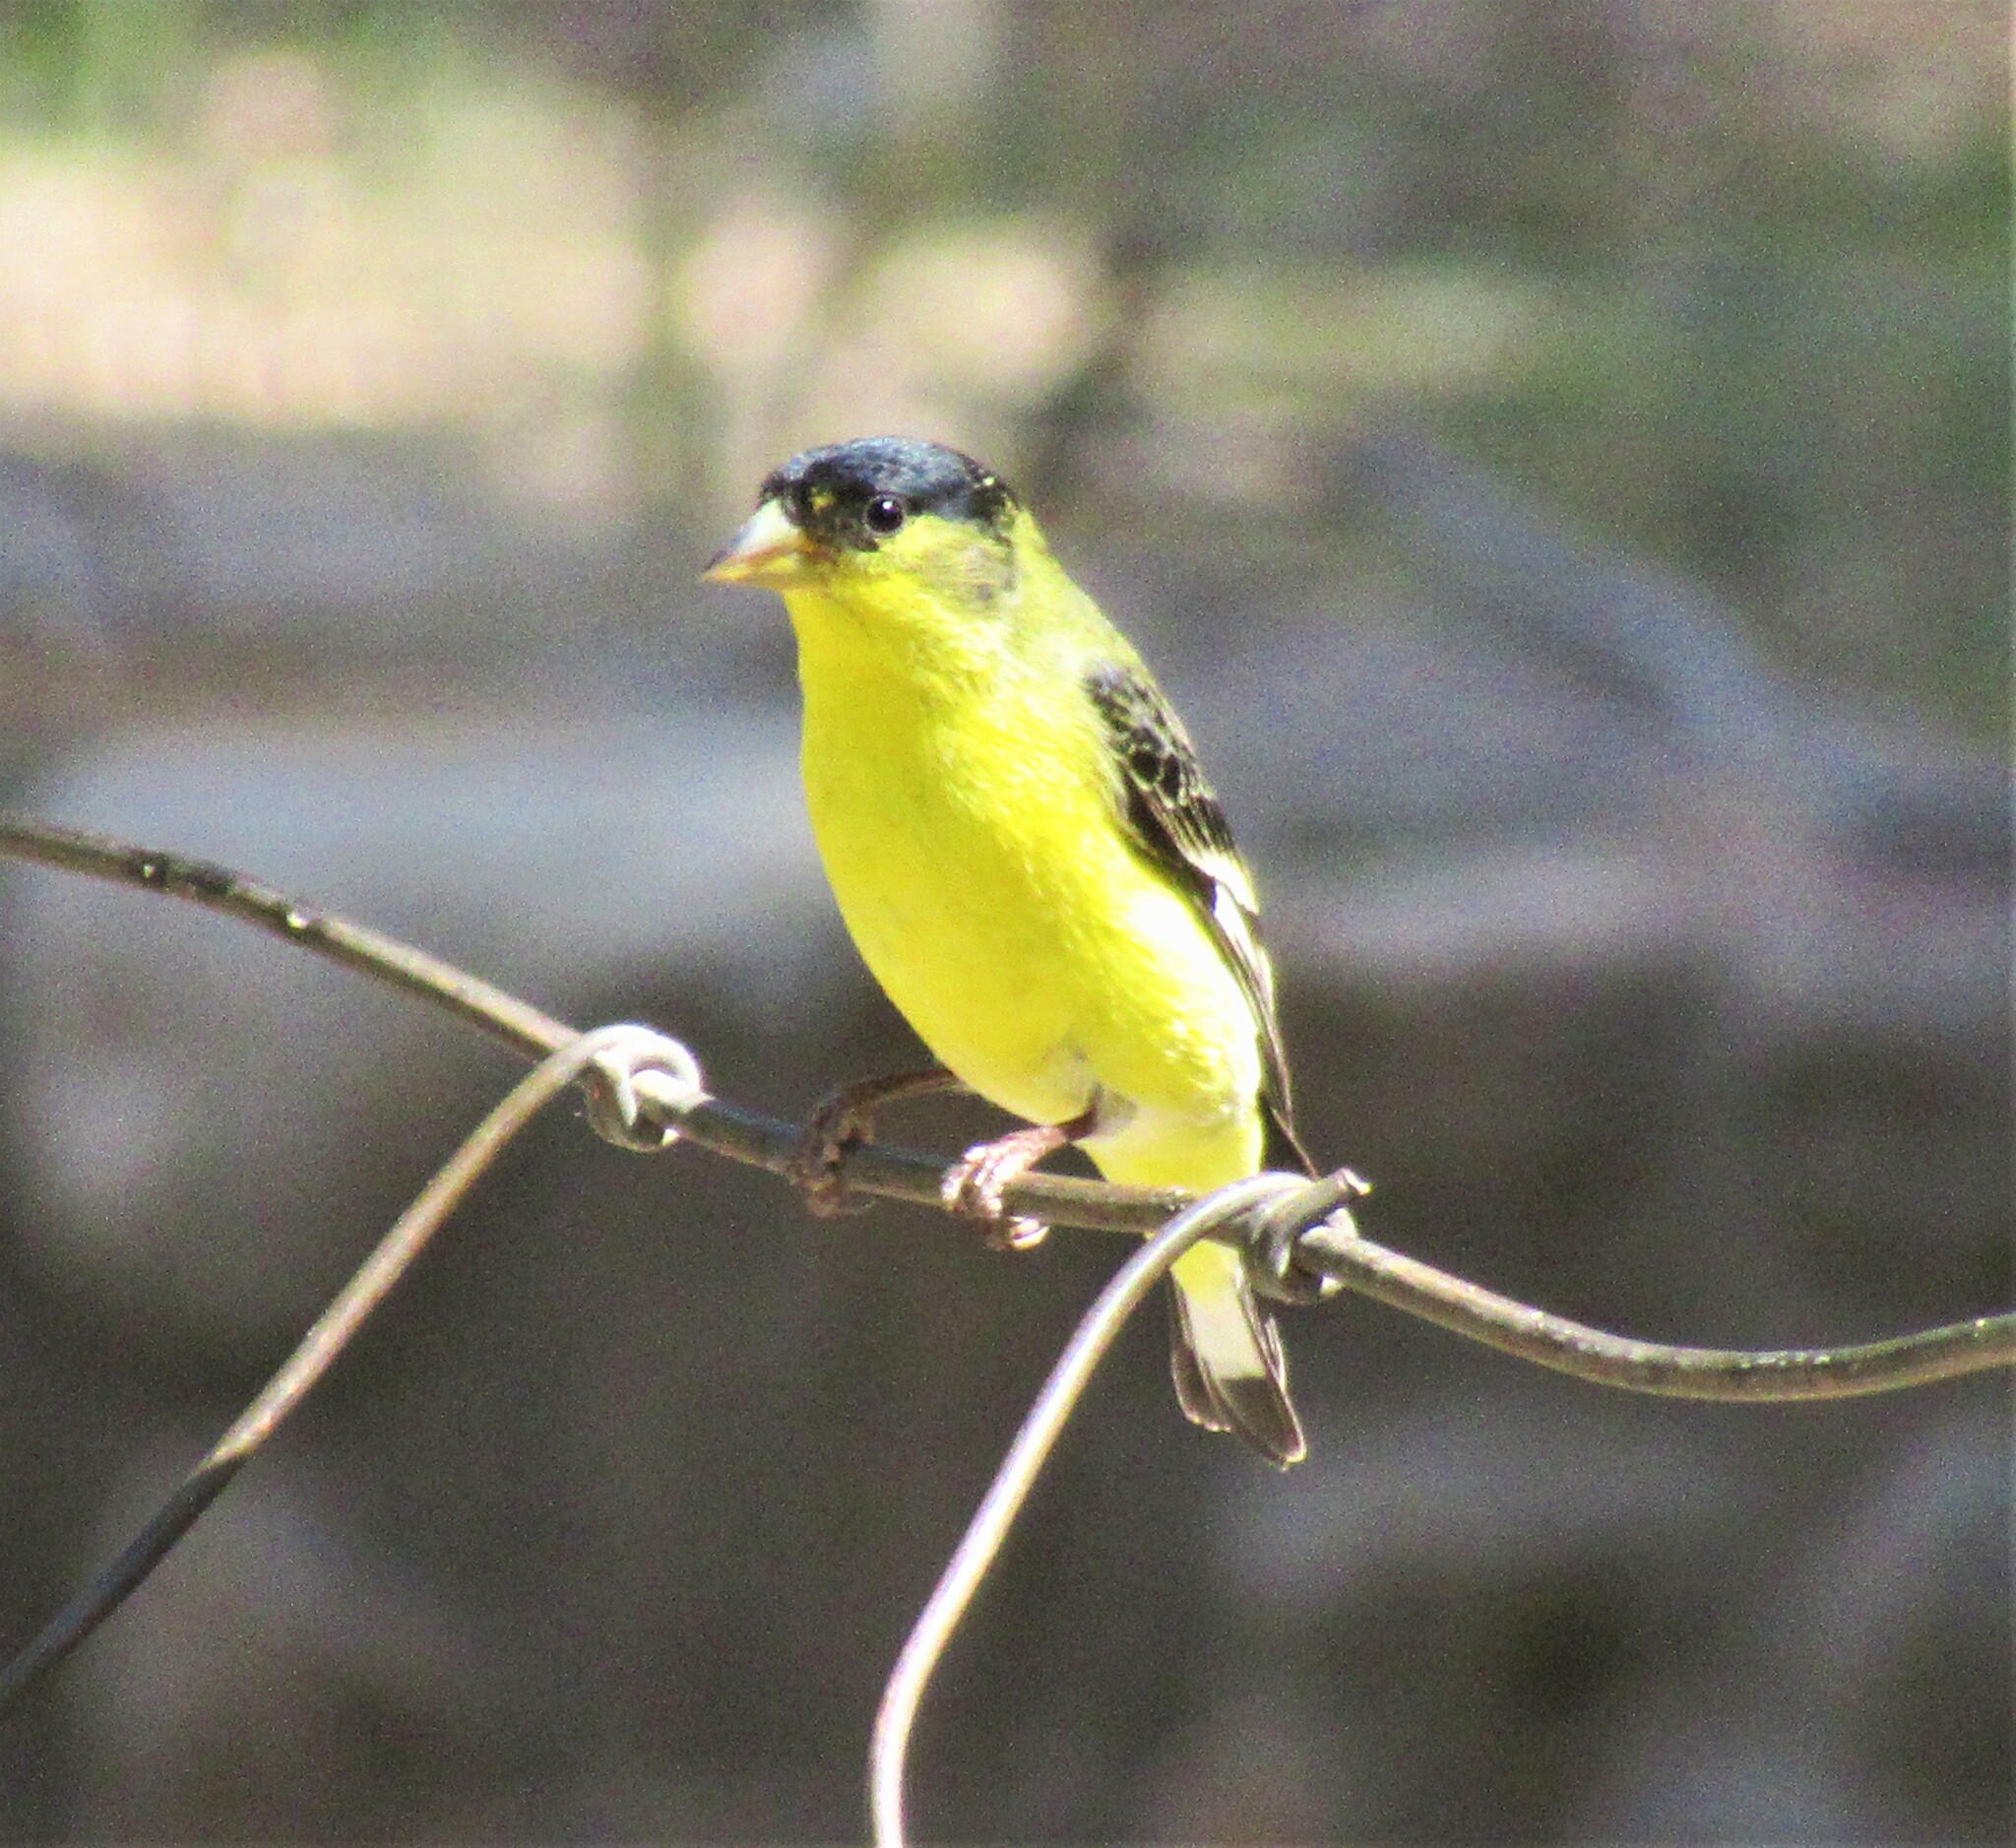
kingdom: Animalia
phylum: Chordata
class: Aves
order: Passeriformes
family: Fringillidae
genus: Spinus
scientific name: Spinus psaltria
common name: Lesser goldfinch
